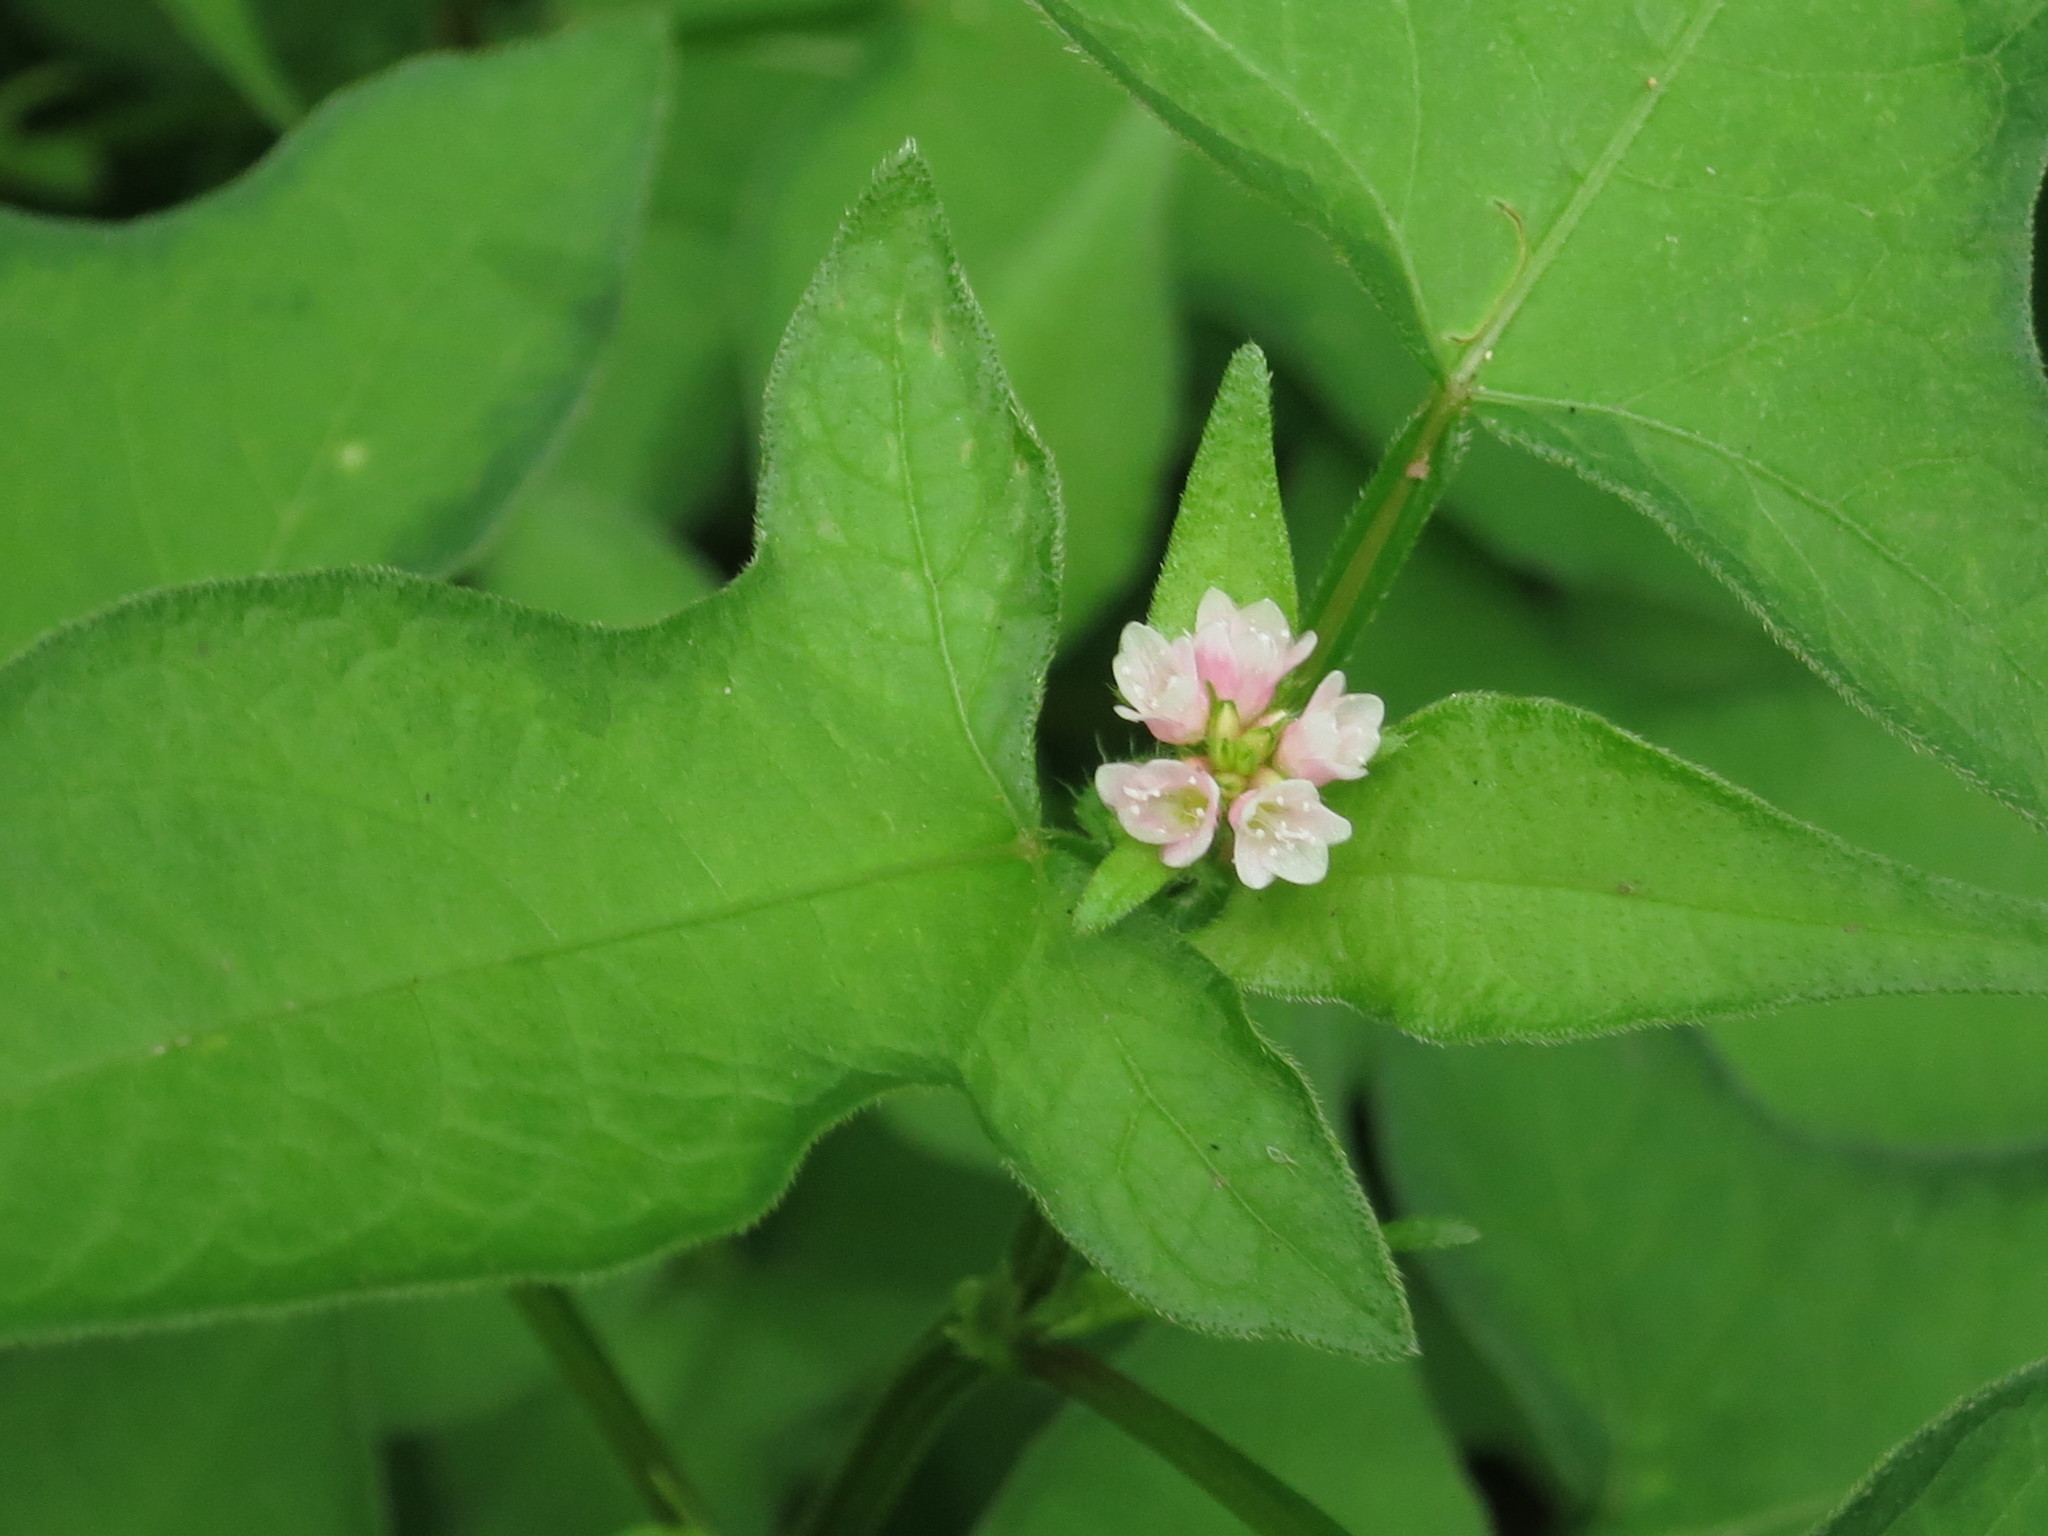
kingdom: Plantae
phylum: Tracheophyta
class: Magnoliopsida
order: Caryophyllales
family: Polygonaceae
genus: Persicaria
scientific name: Persicaria thunbergii
